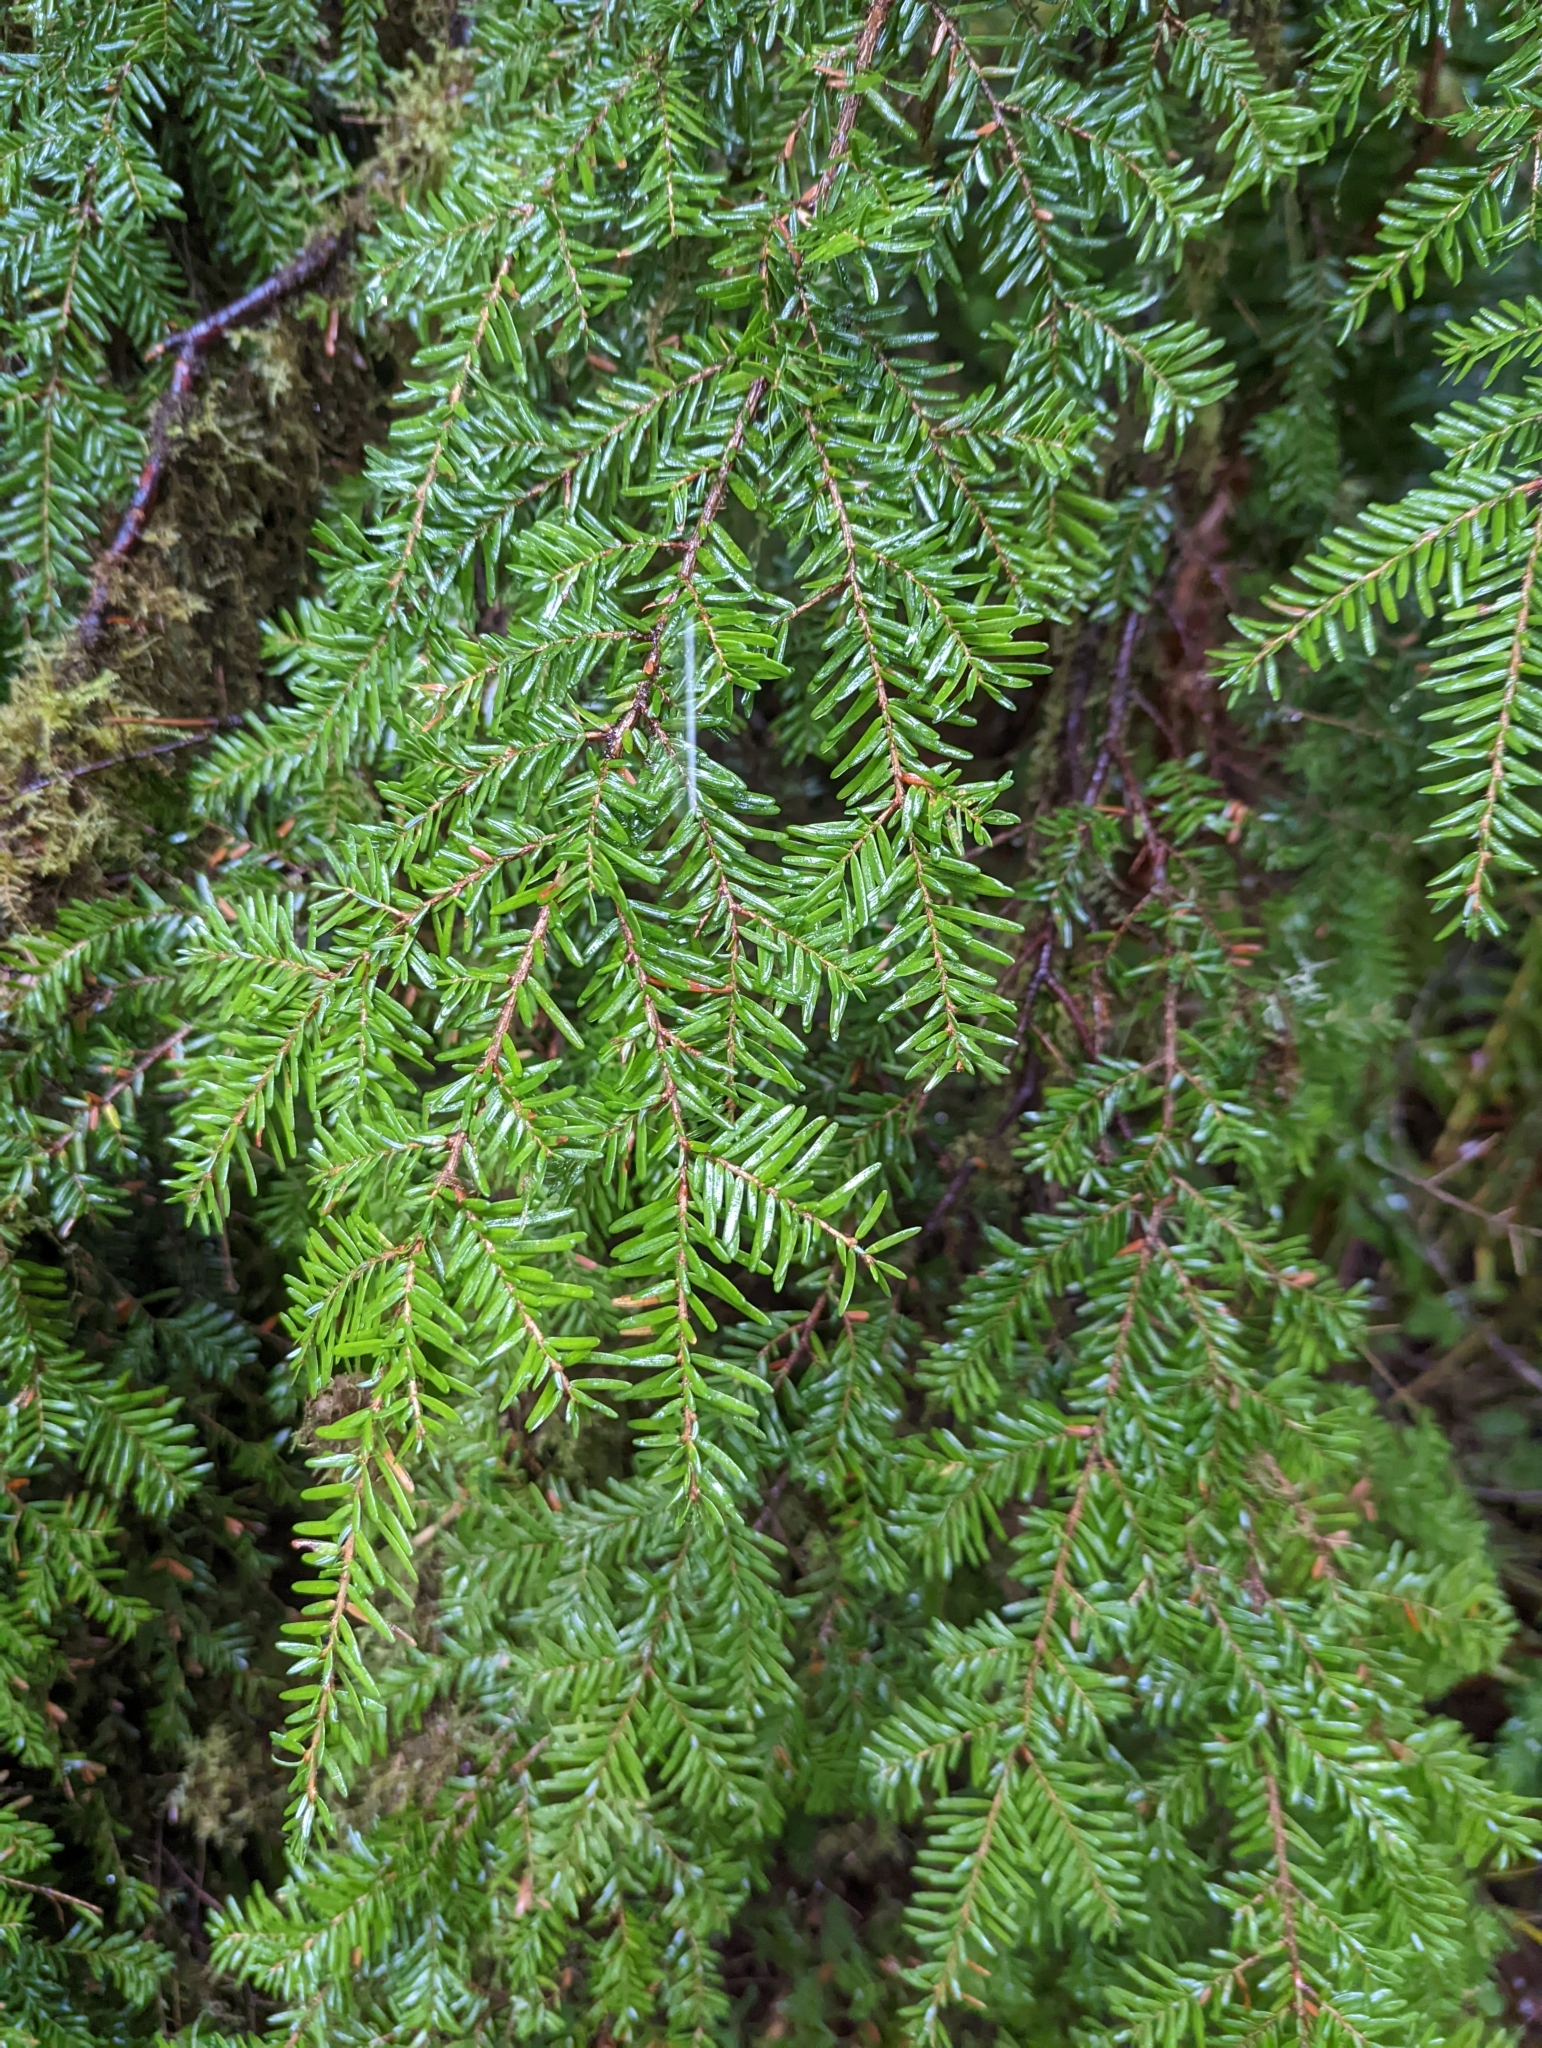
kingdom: Plantae
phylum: Tracheophyta
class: Pinopsida
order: Pinales
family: Pinaceae
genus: Tsuga
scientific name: Tsuga heterophylla
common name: Western hemlock
